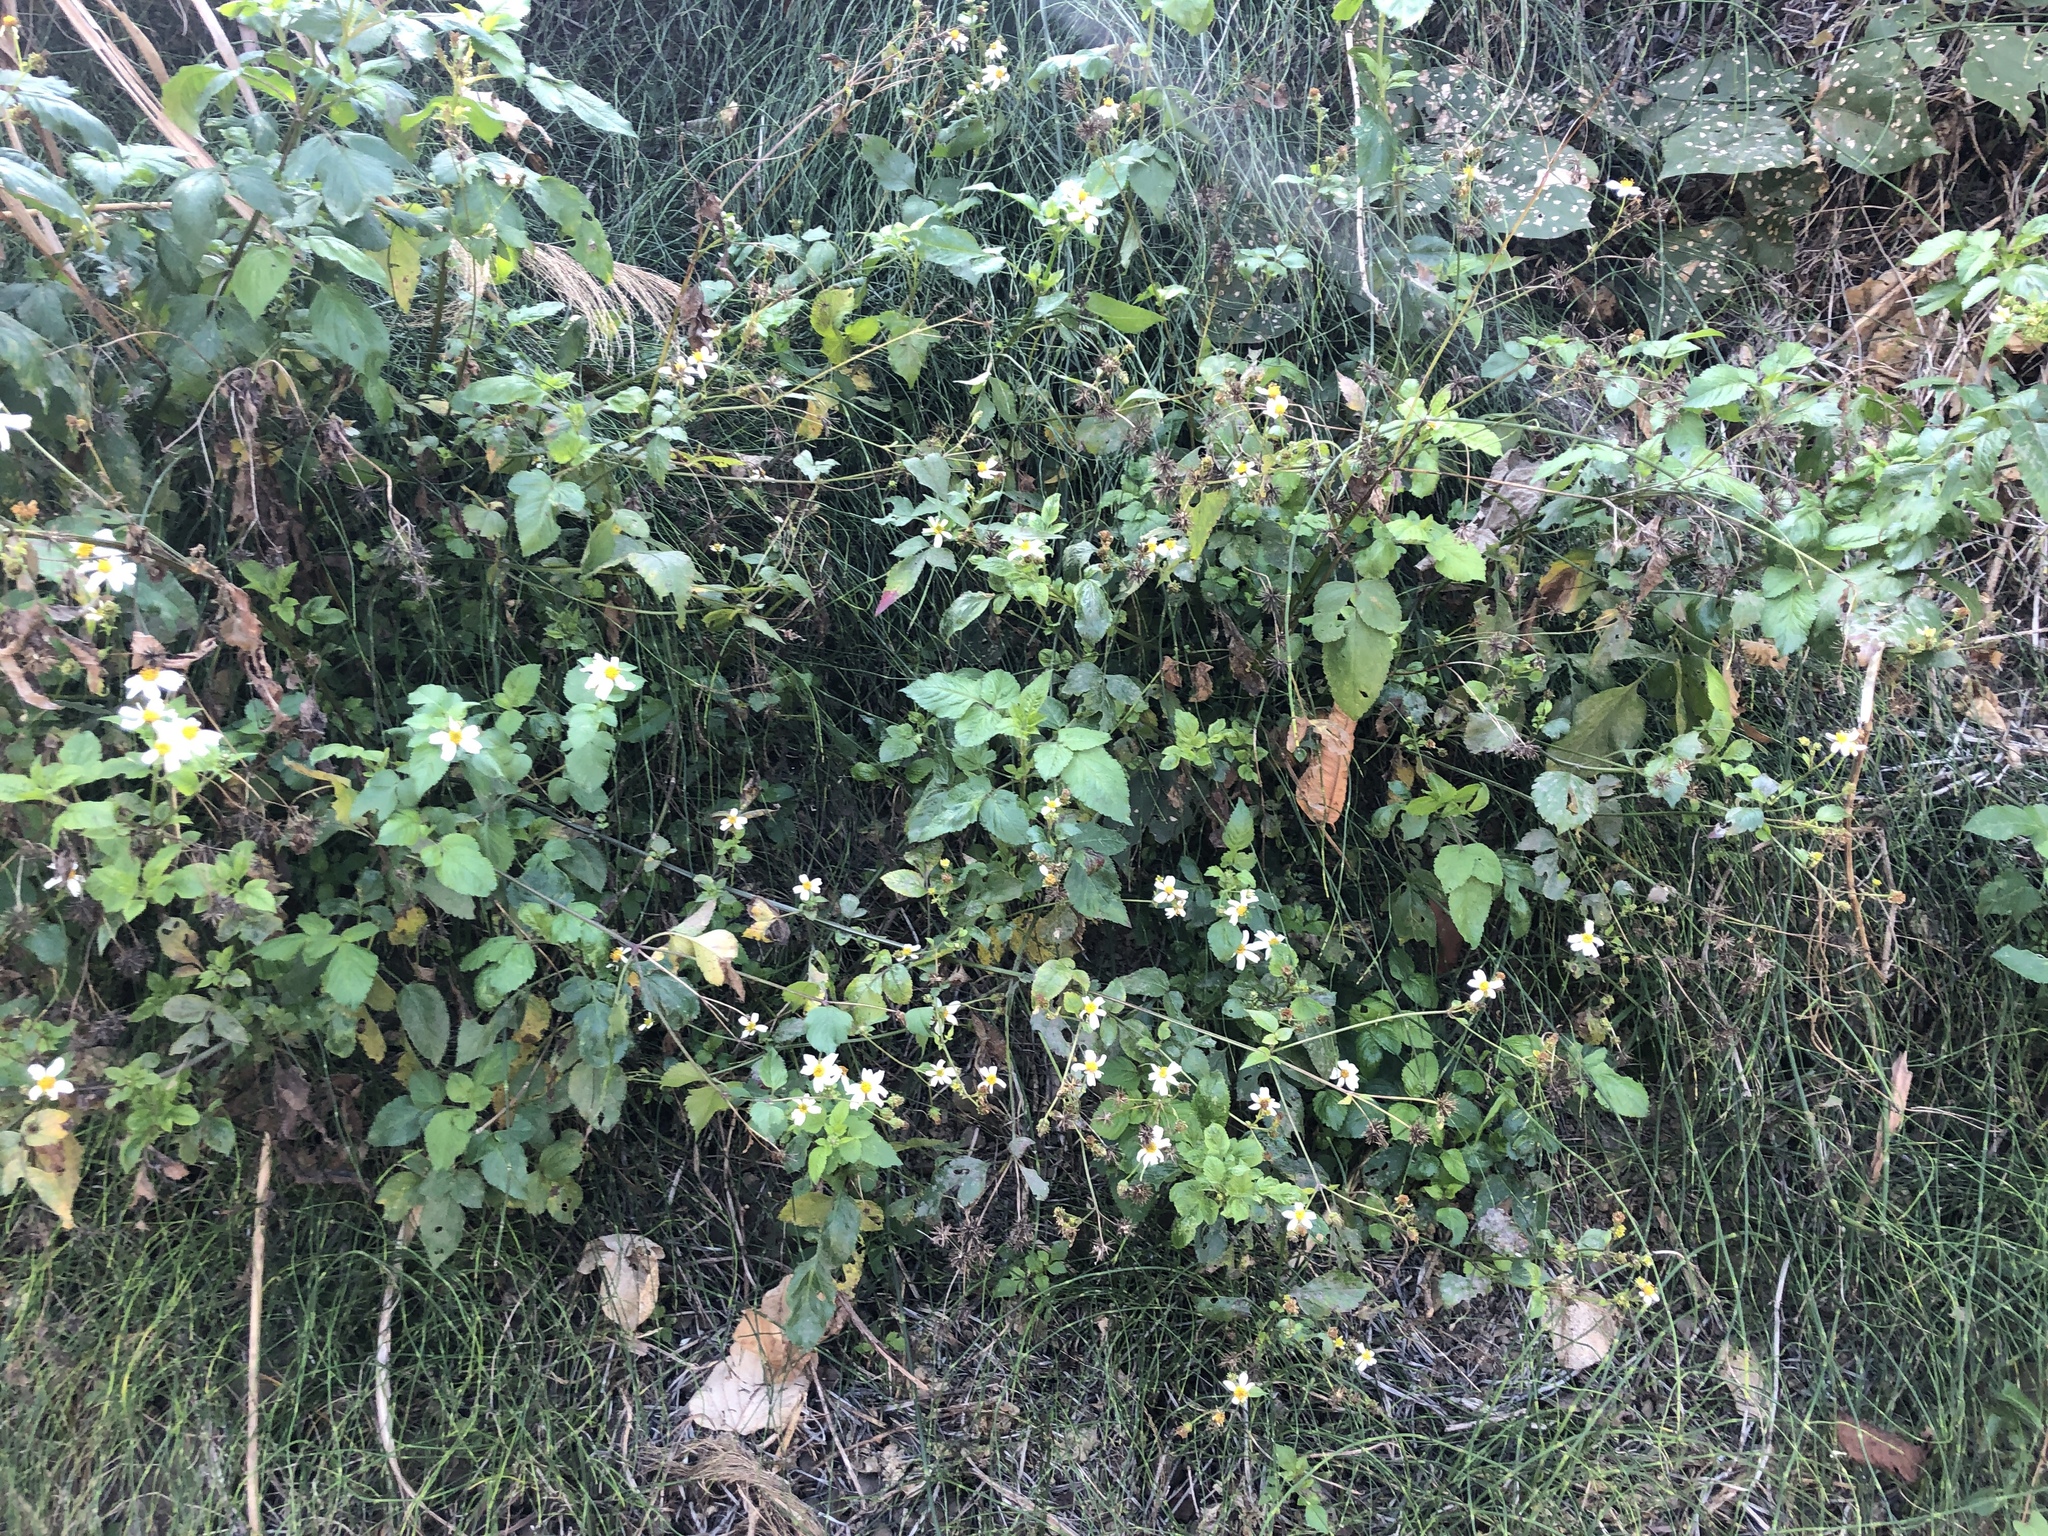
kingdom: Plantae
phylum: Tracheophyta
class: Magnoliopsida
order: Asterales
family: Asteraceae
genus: Bidens
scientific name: Bidens alba
